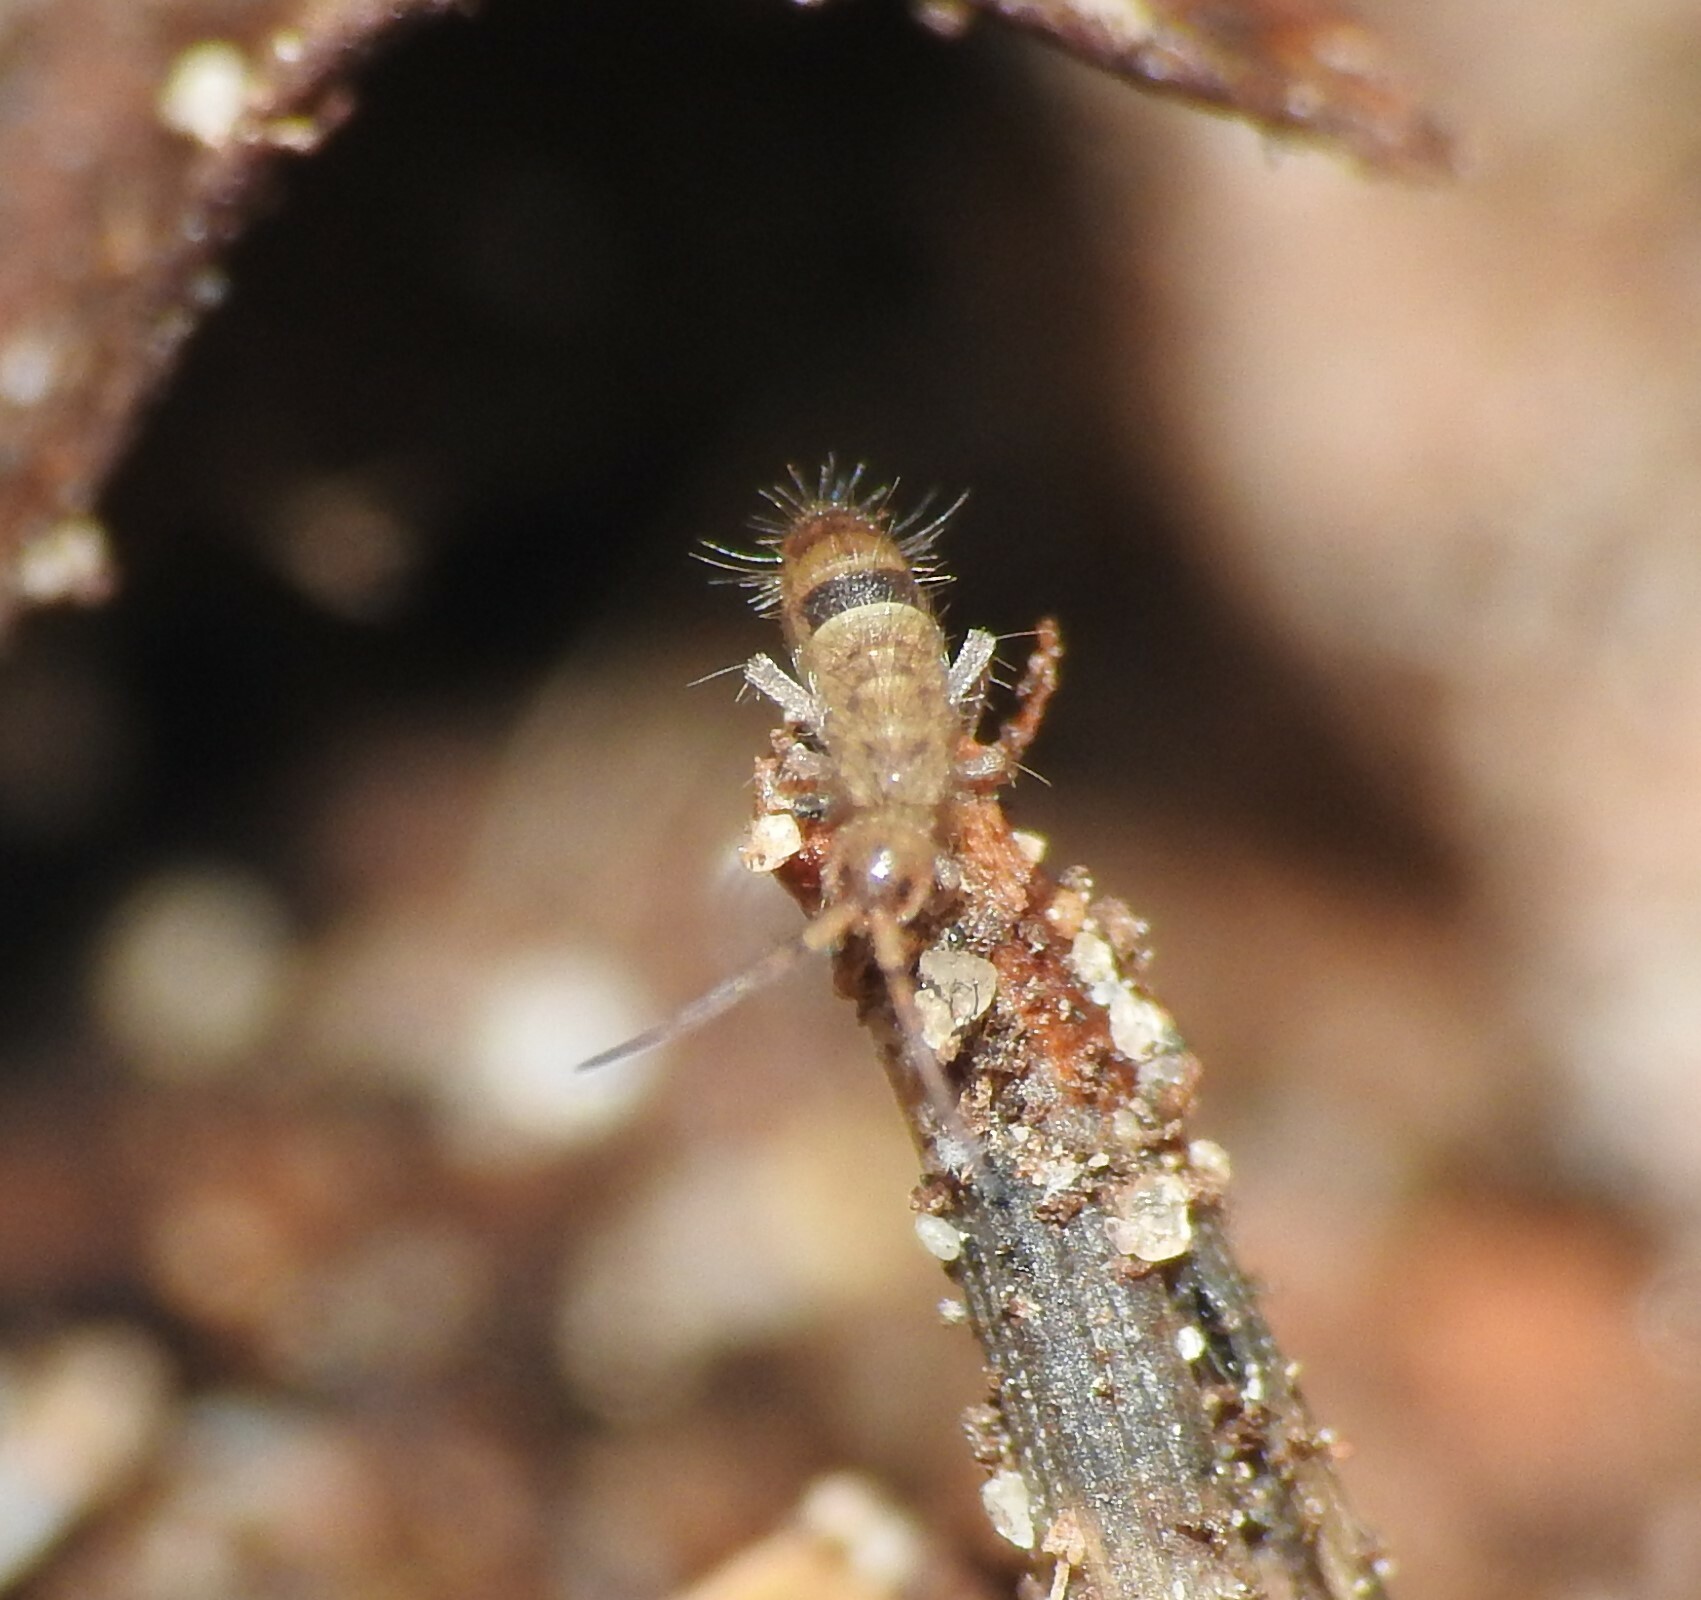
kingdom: Animalia
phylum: Arthropoda
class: Collembola
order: Entomobryomorpha
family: Orchesellidae
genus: Orchesella
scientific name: Orchesella cincta
